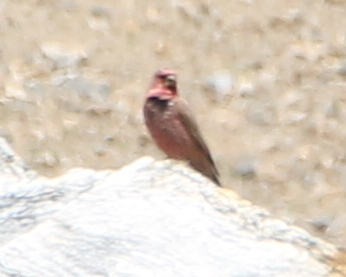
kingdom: Animalia
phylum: Chordata
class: Aves
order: Passeriformes
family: Fringillidae
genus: Carpodacus
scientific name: Carpodacus rubicilla
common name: Great rosefinch
